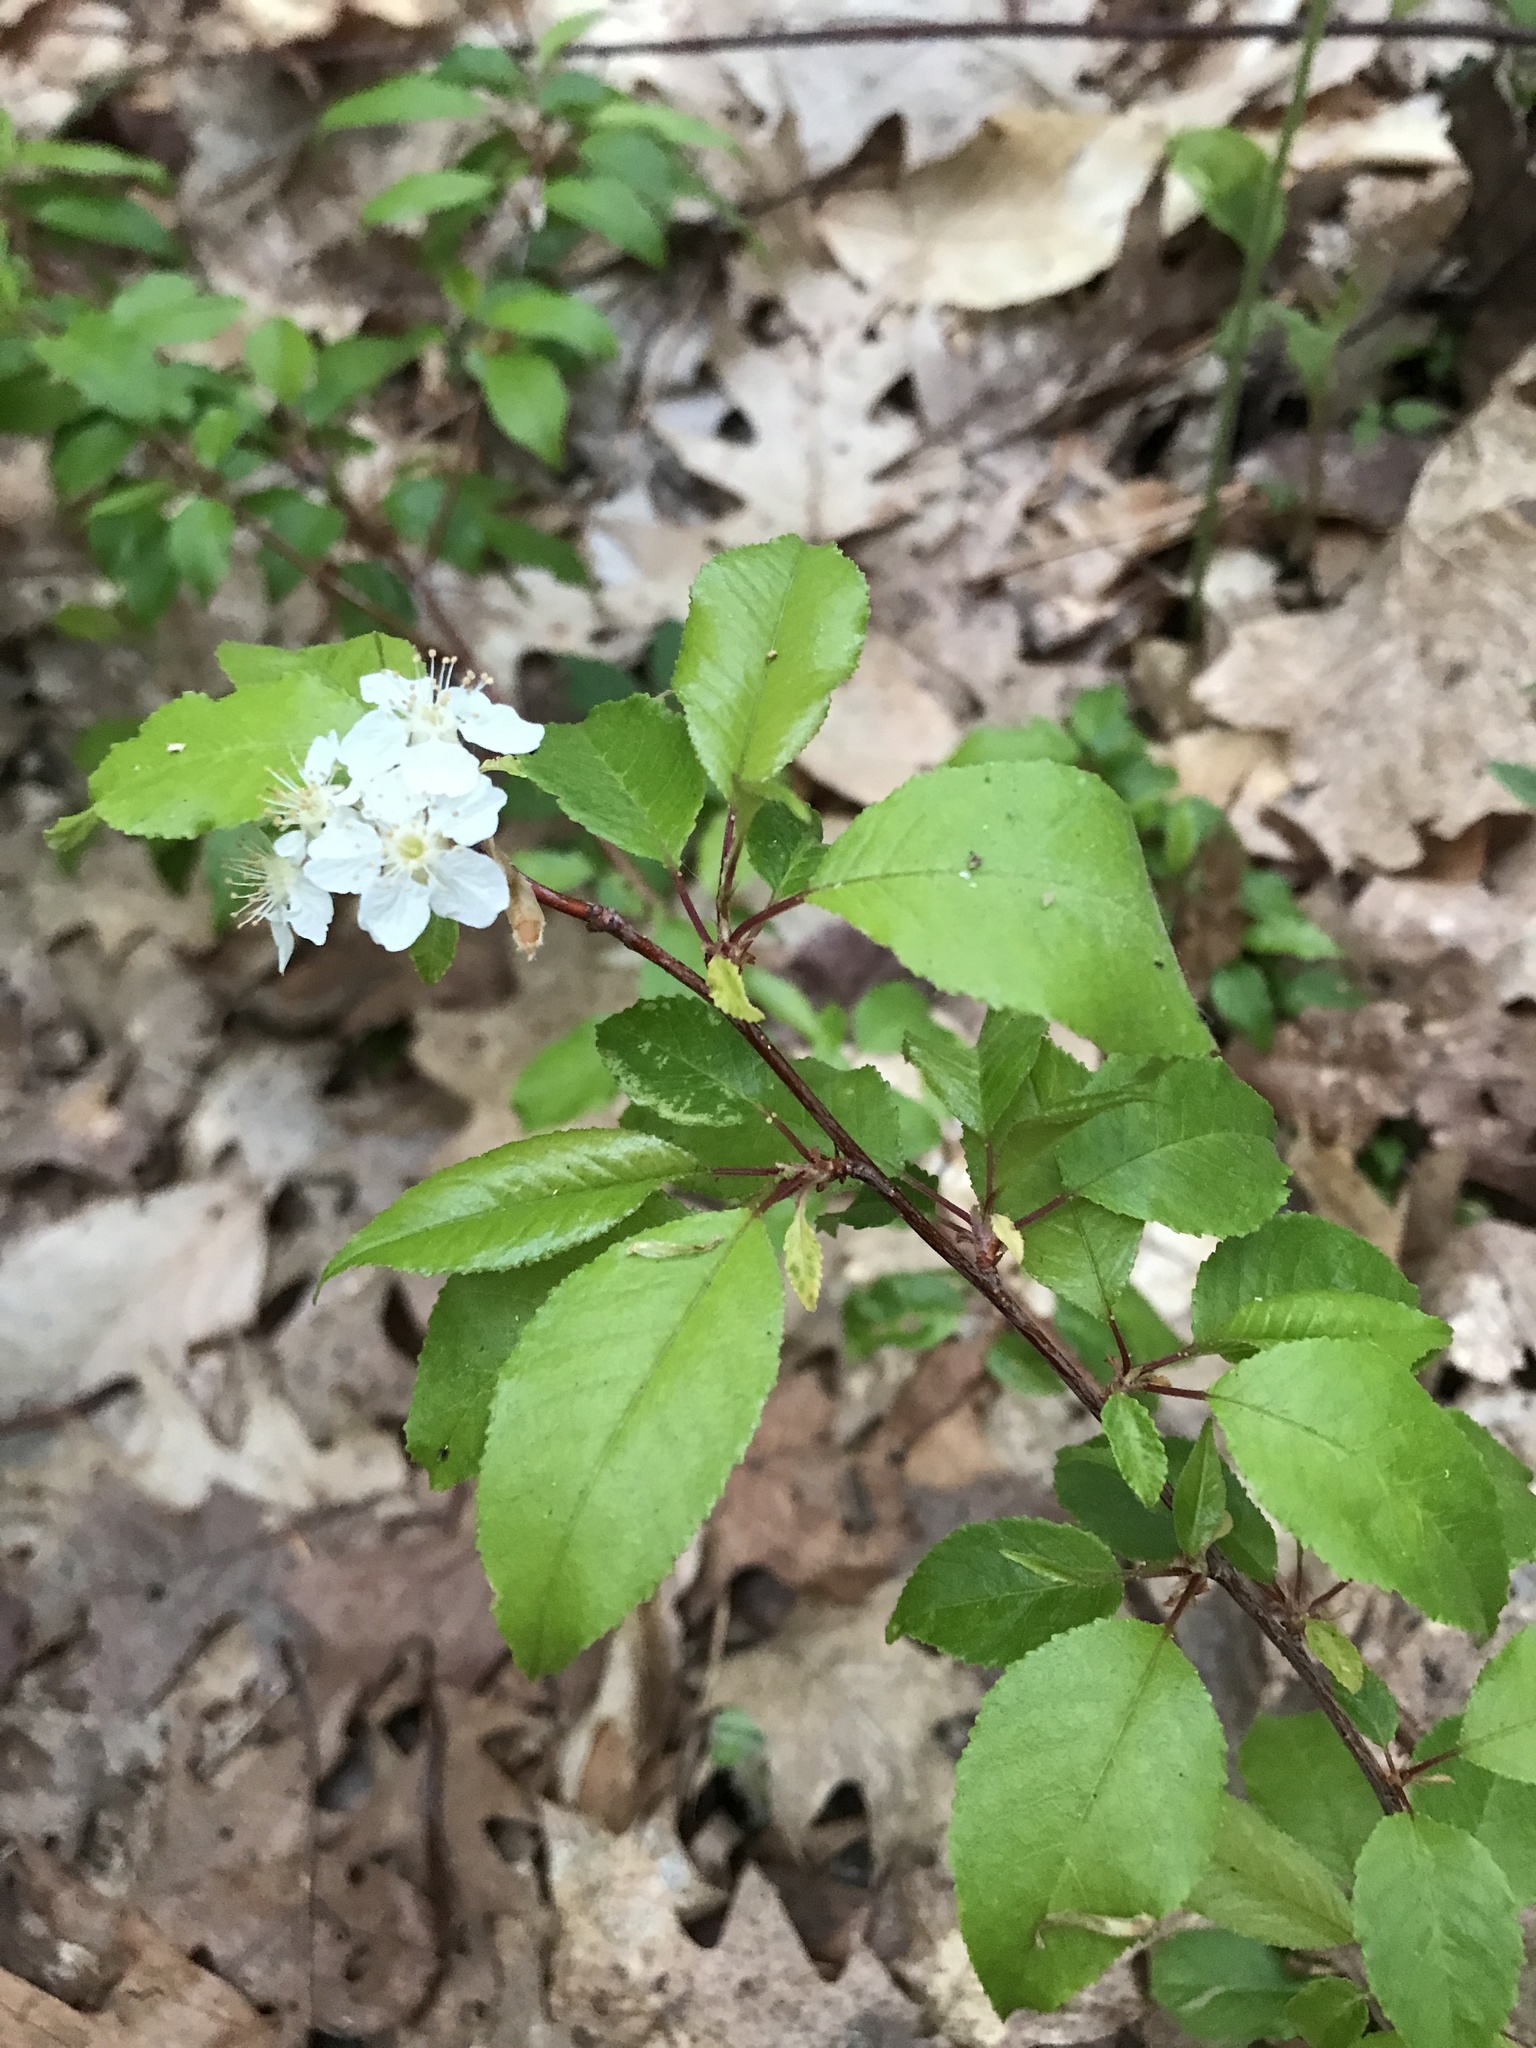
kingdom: Plantae
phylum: Tracheophyta
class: Magnoliopsida
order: Rosales
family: Rosaceae
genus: Prunus
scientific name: Prunus pensylvanica
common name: Pin cherry
